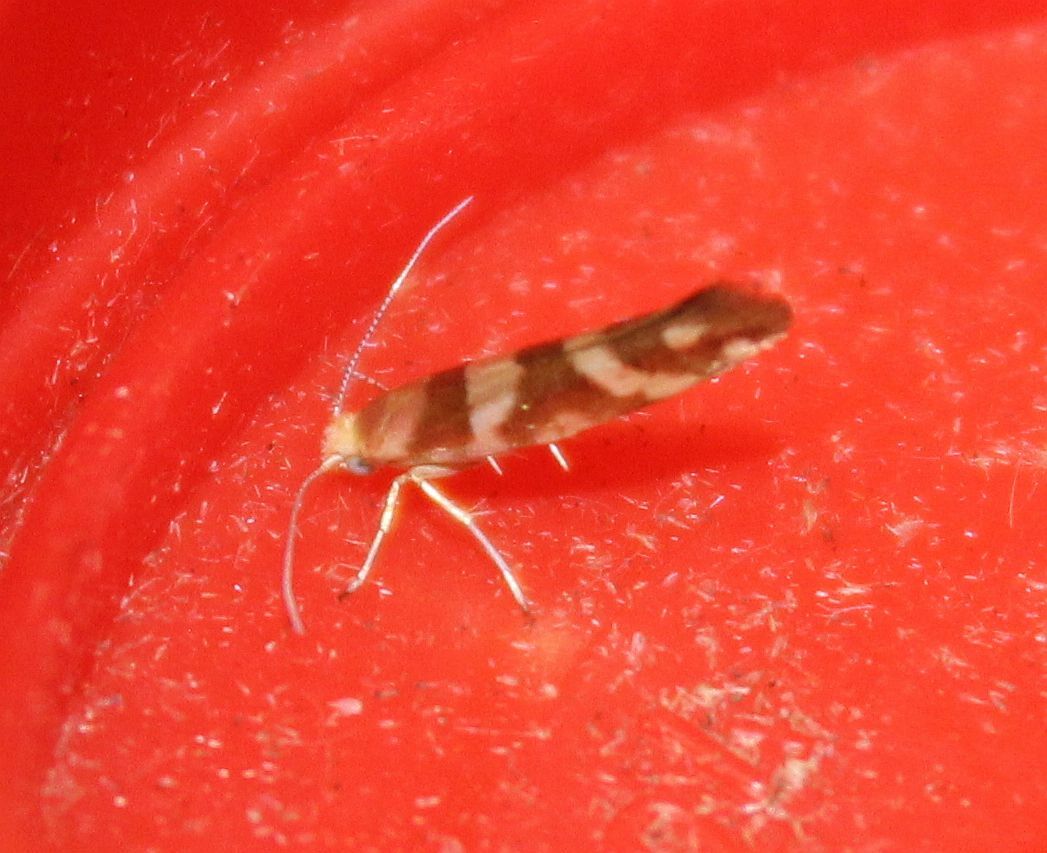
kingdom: Animalia
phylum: Arthropoda
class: Insecta
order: Lepidoptera
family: Argyresthiidae
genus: Argyresthia
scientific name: Argyresthia goedartella
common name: Golden argent
